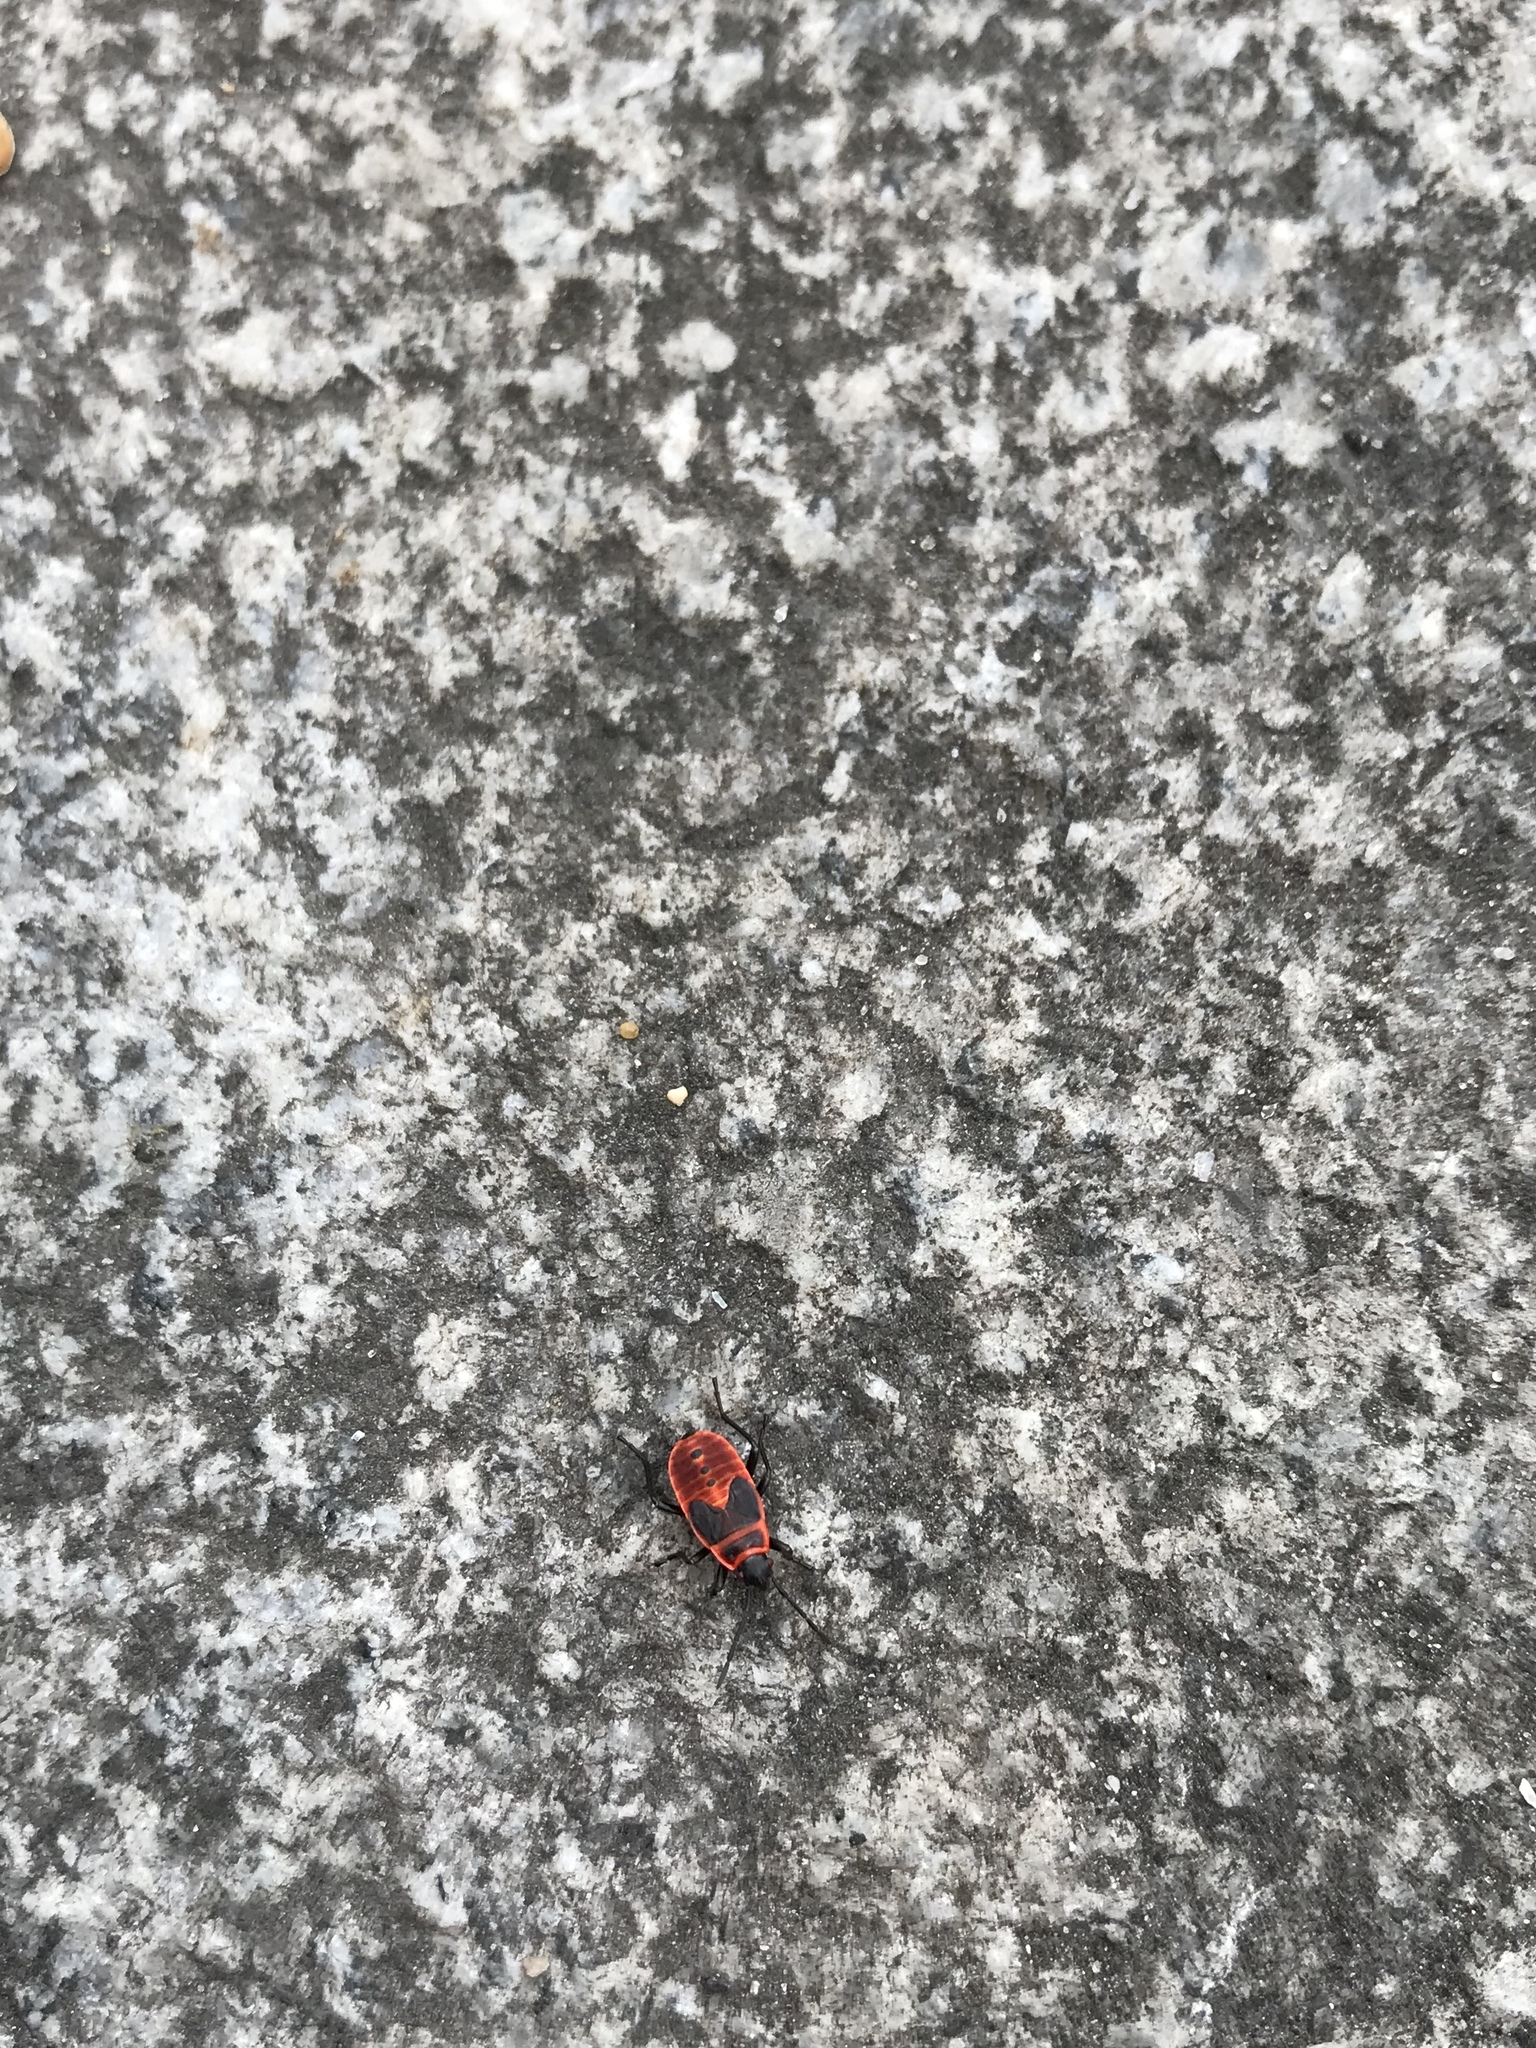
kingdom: Animalia
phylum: Arthropoda
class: Insecta
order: Hemiptera
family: Pyrrhocoridae
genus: Pyrrhocoris
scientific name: Pyrrhocoris apterus
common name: Firebug
